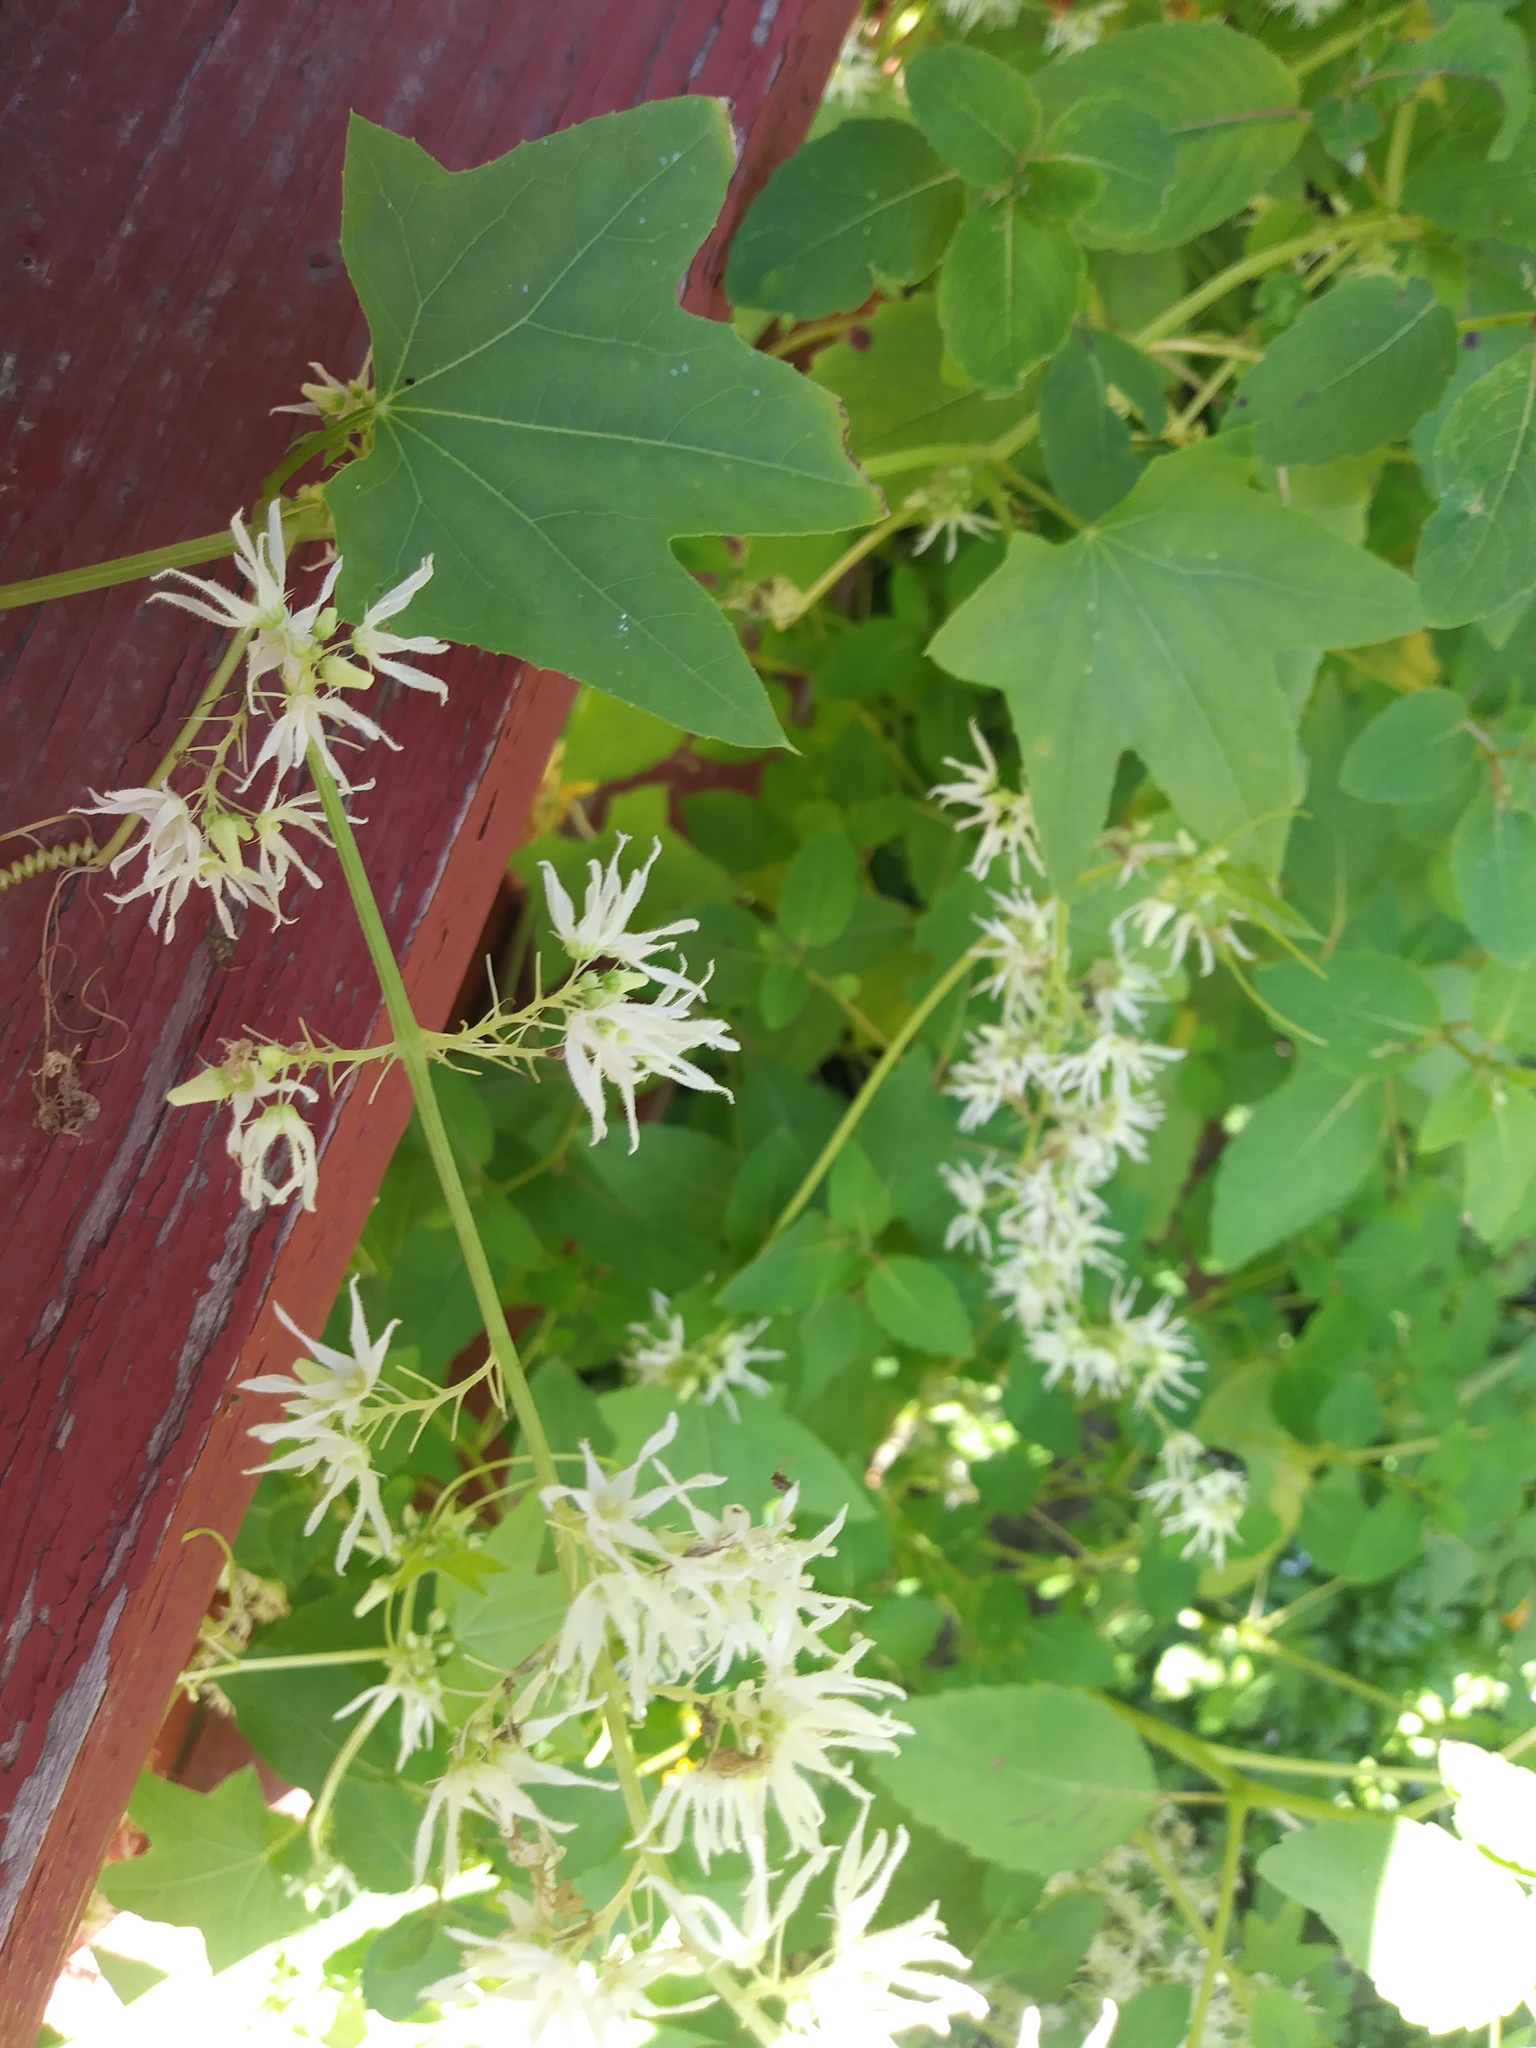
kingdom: Plantae
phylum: Tracheophyta
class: Magnoliopsida
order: Cucurbitales
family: Cucurbitaceae
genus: Echinocystis
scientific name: Echinocystis lobata
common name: Wild cucumber
